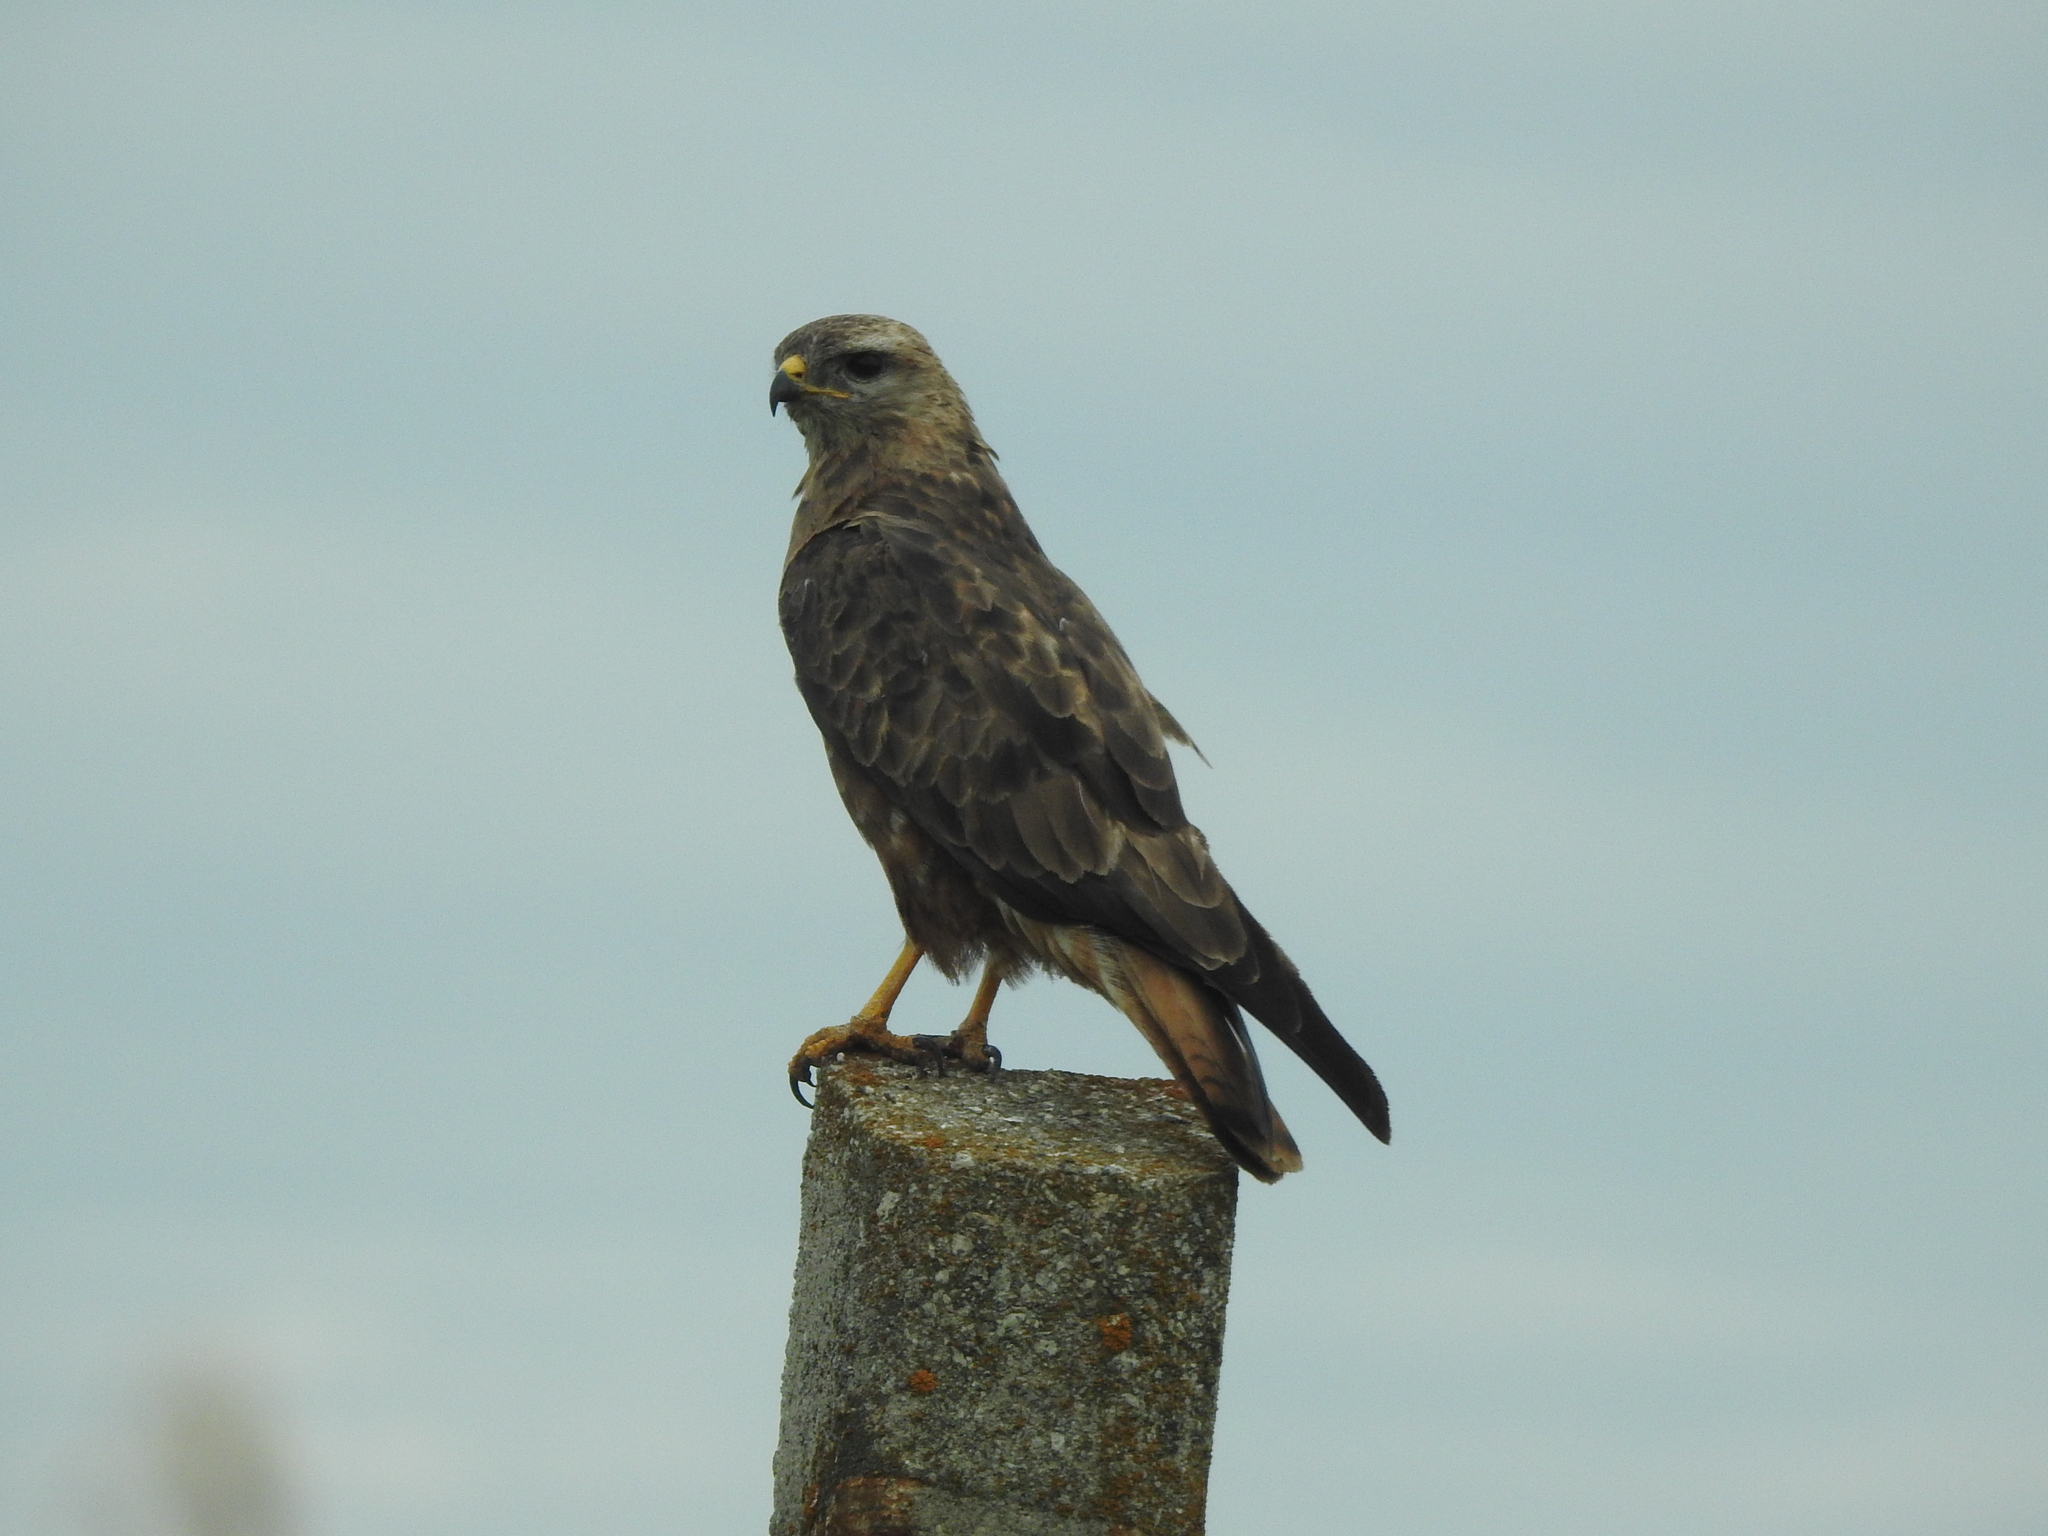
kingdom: Animalia
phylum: Chordata
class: Aves
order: Accipitriformes
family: Accipitridae
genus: Buteo
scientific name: Buteo buteo
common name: Common buzzard
